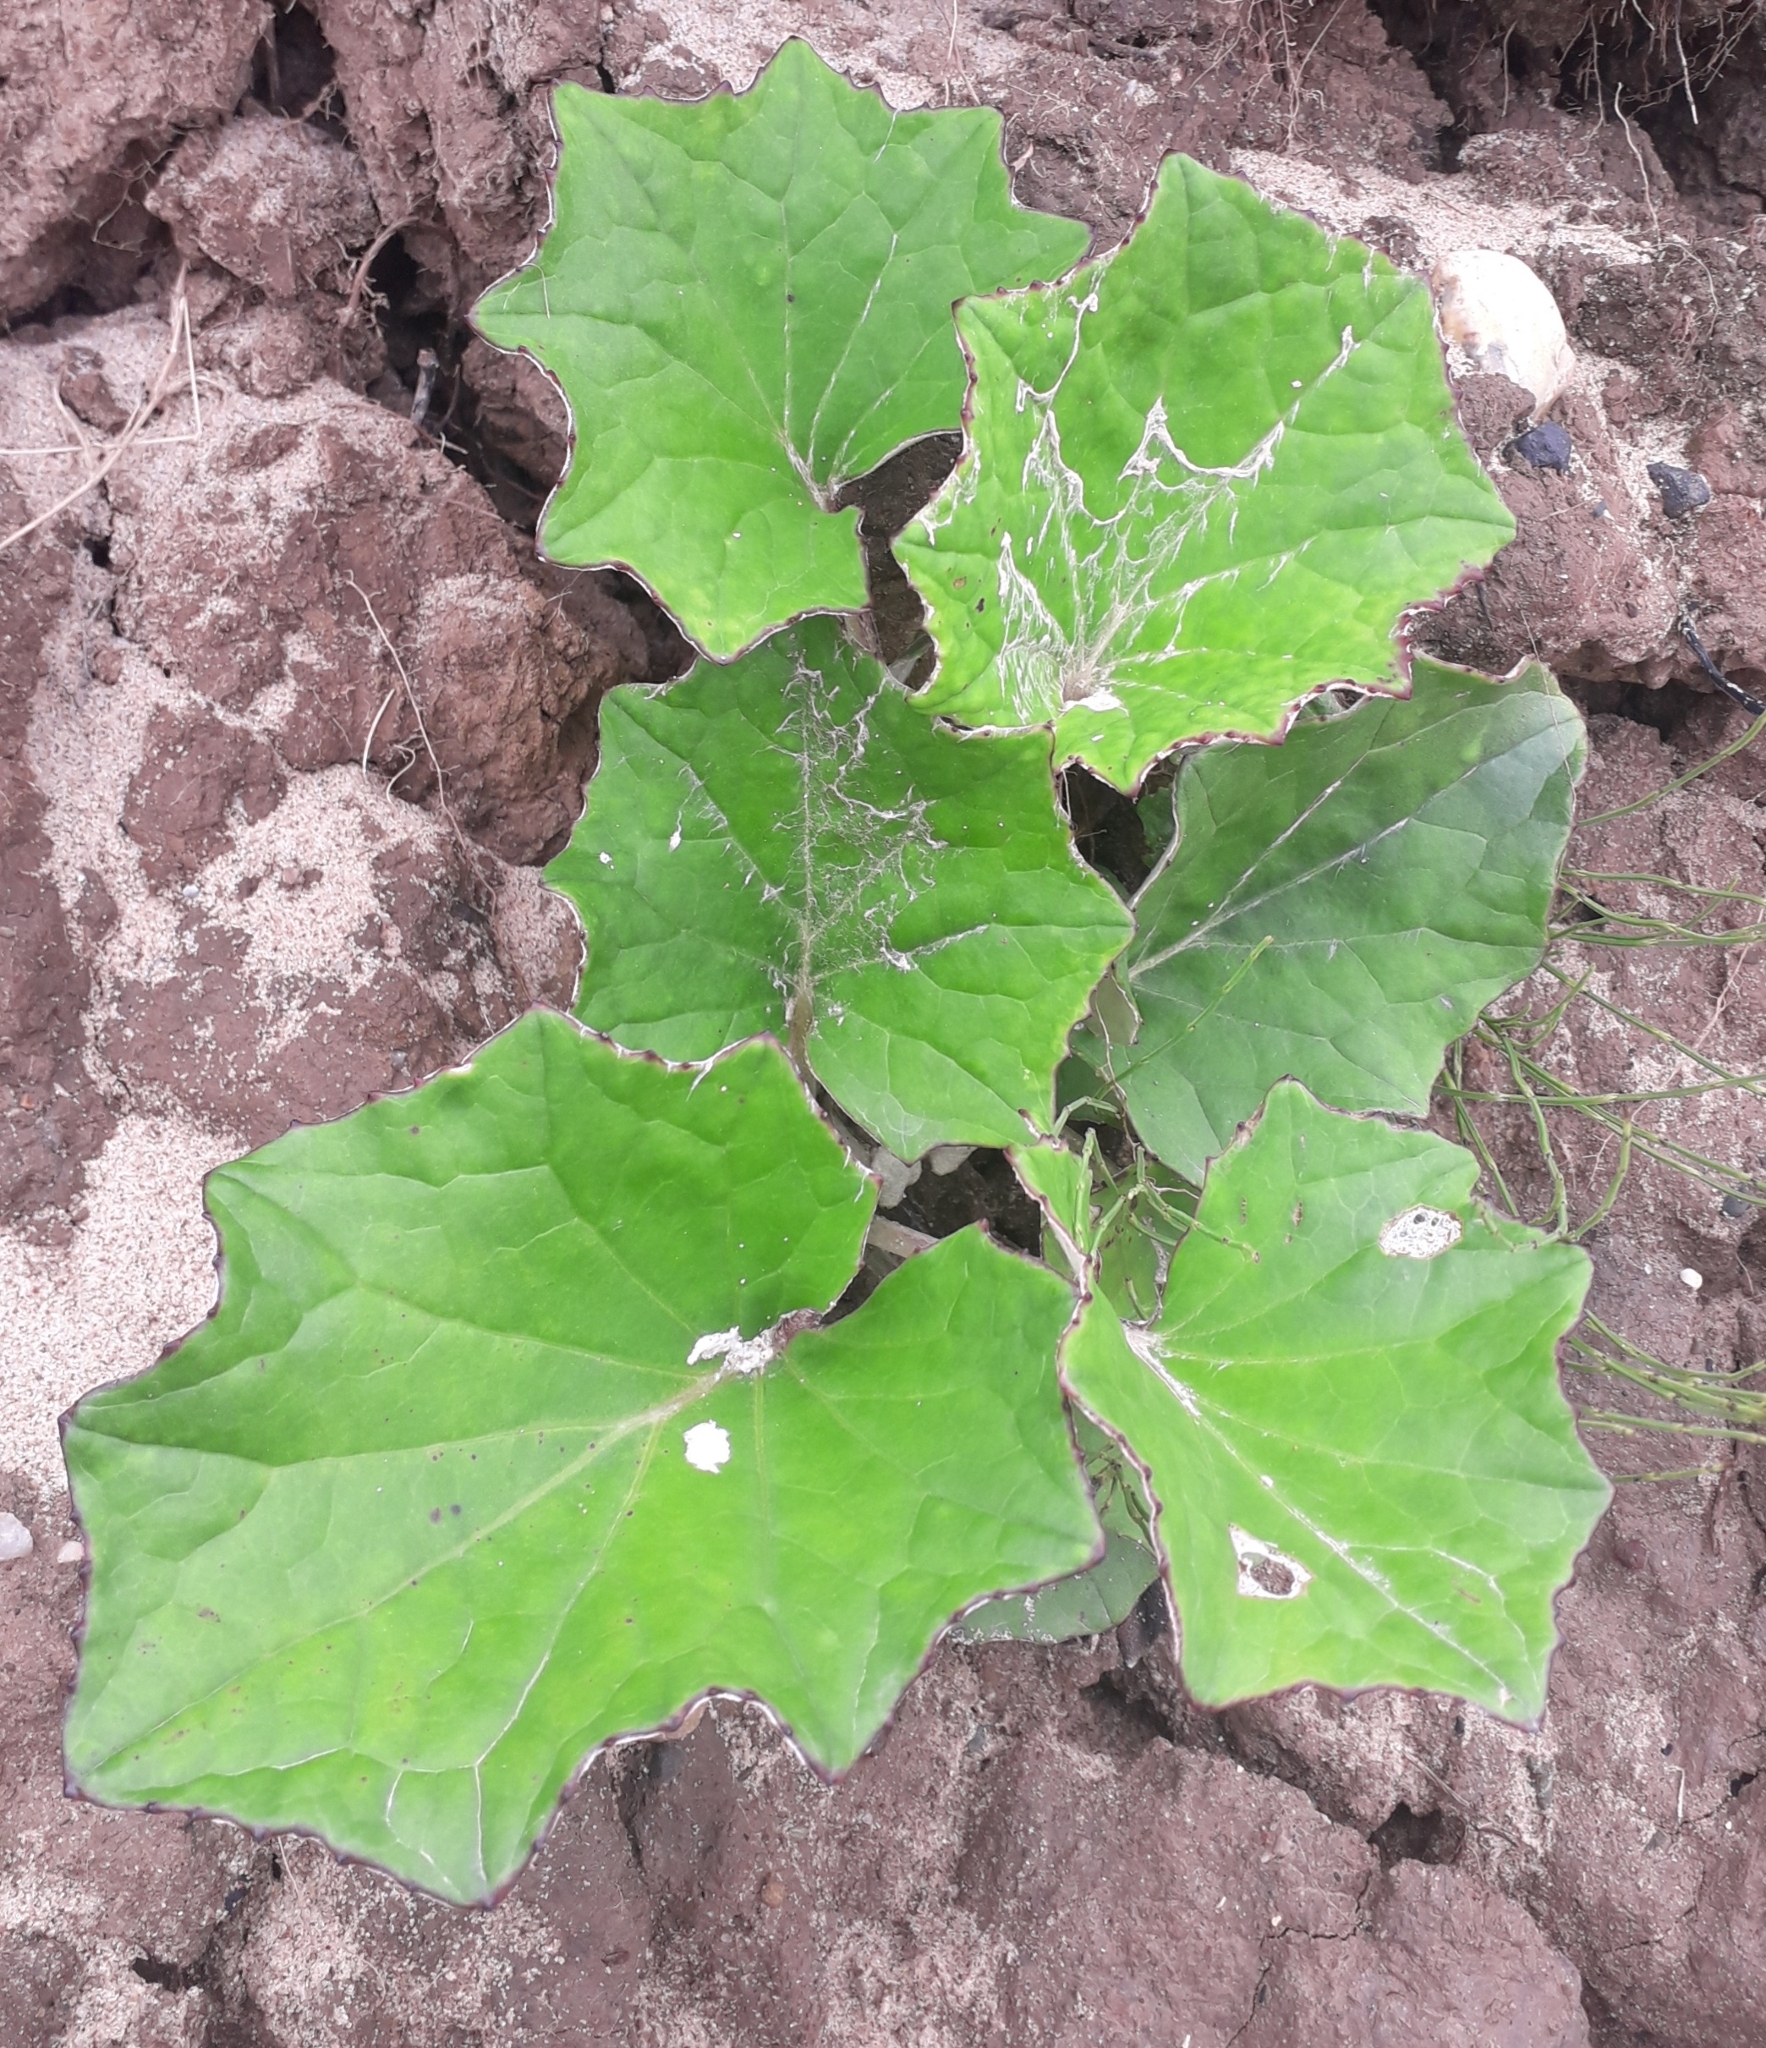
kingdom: Plantae
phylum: Tracheophyta
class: Magnoliopsida
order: Asterales
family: Asteraceae
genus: Tussilago
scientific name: Tussilago farfara
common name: Coltsfoot
